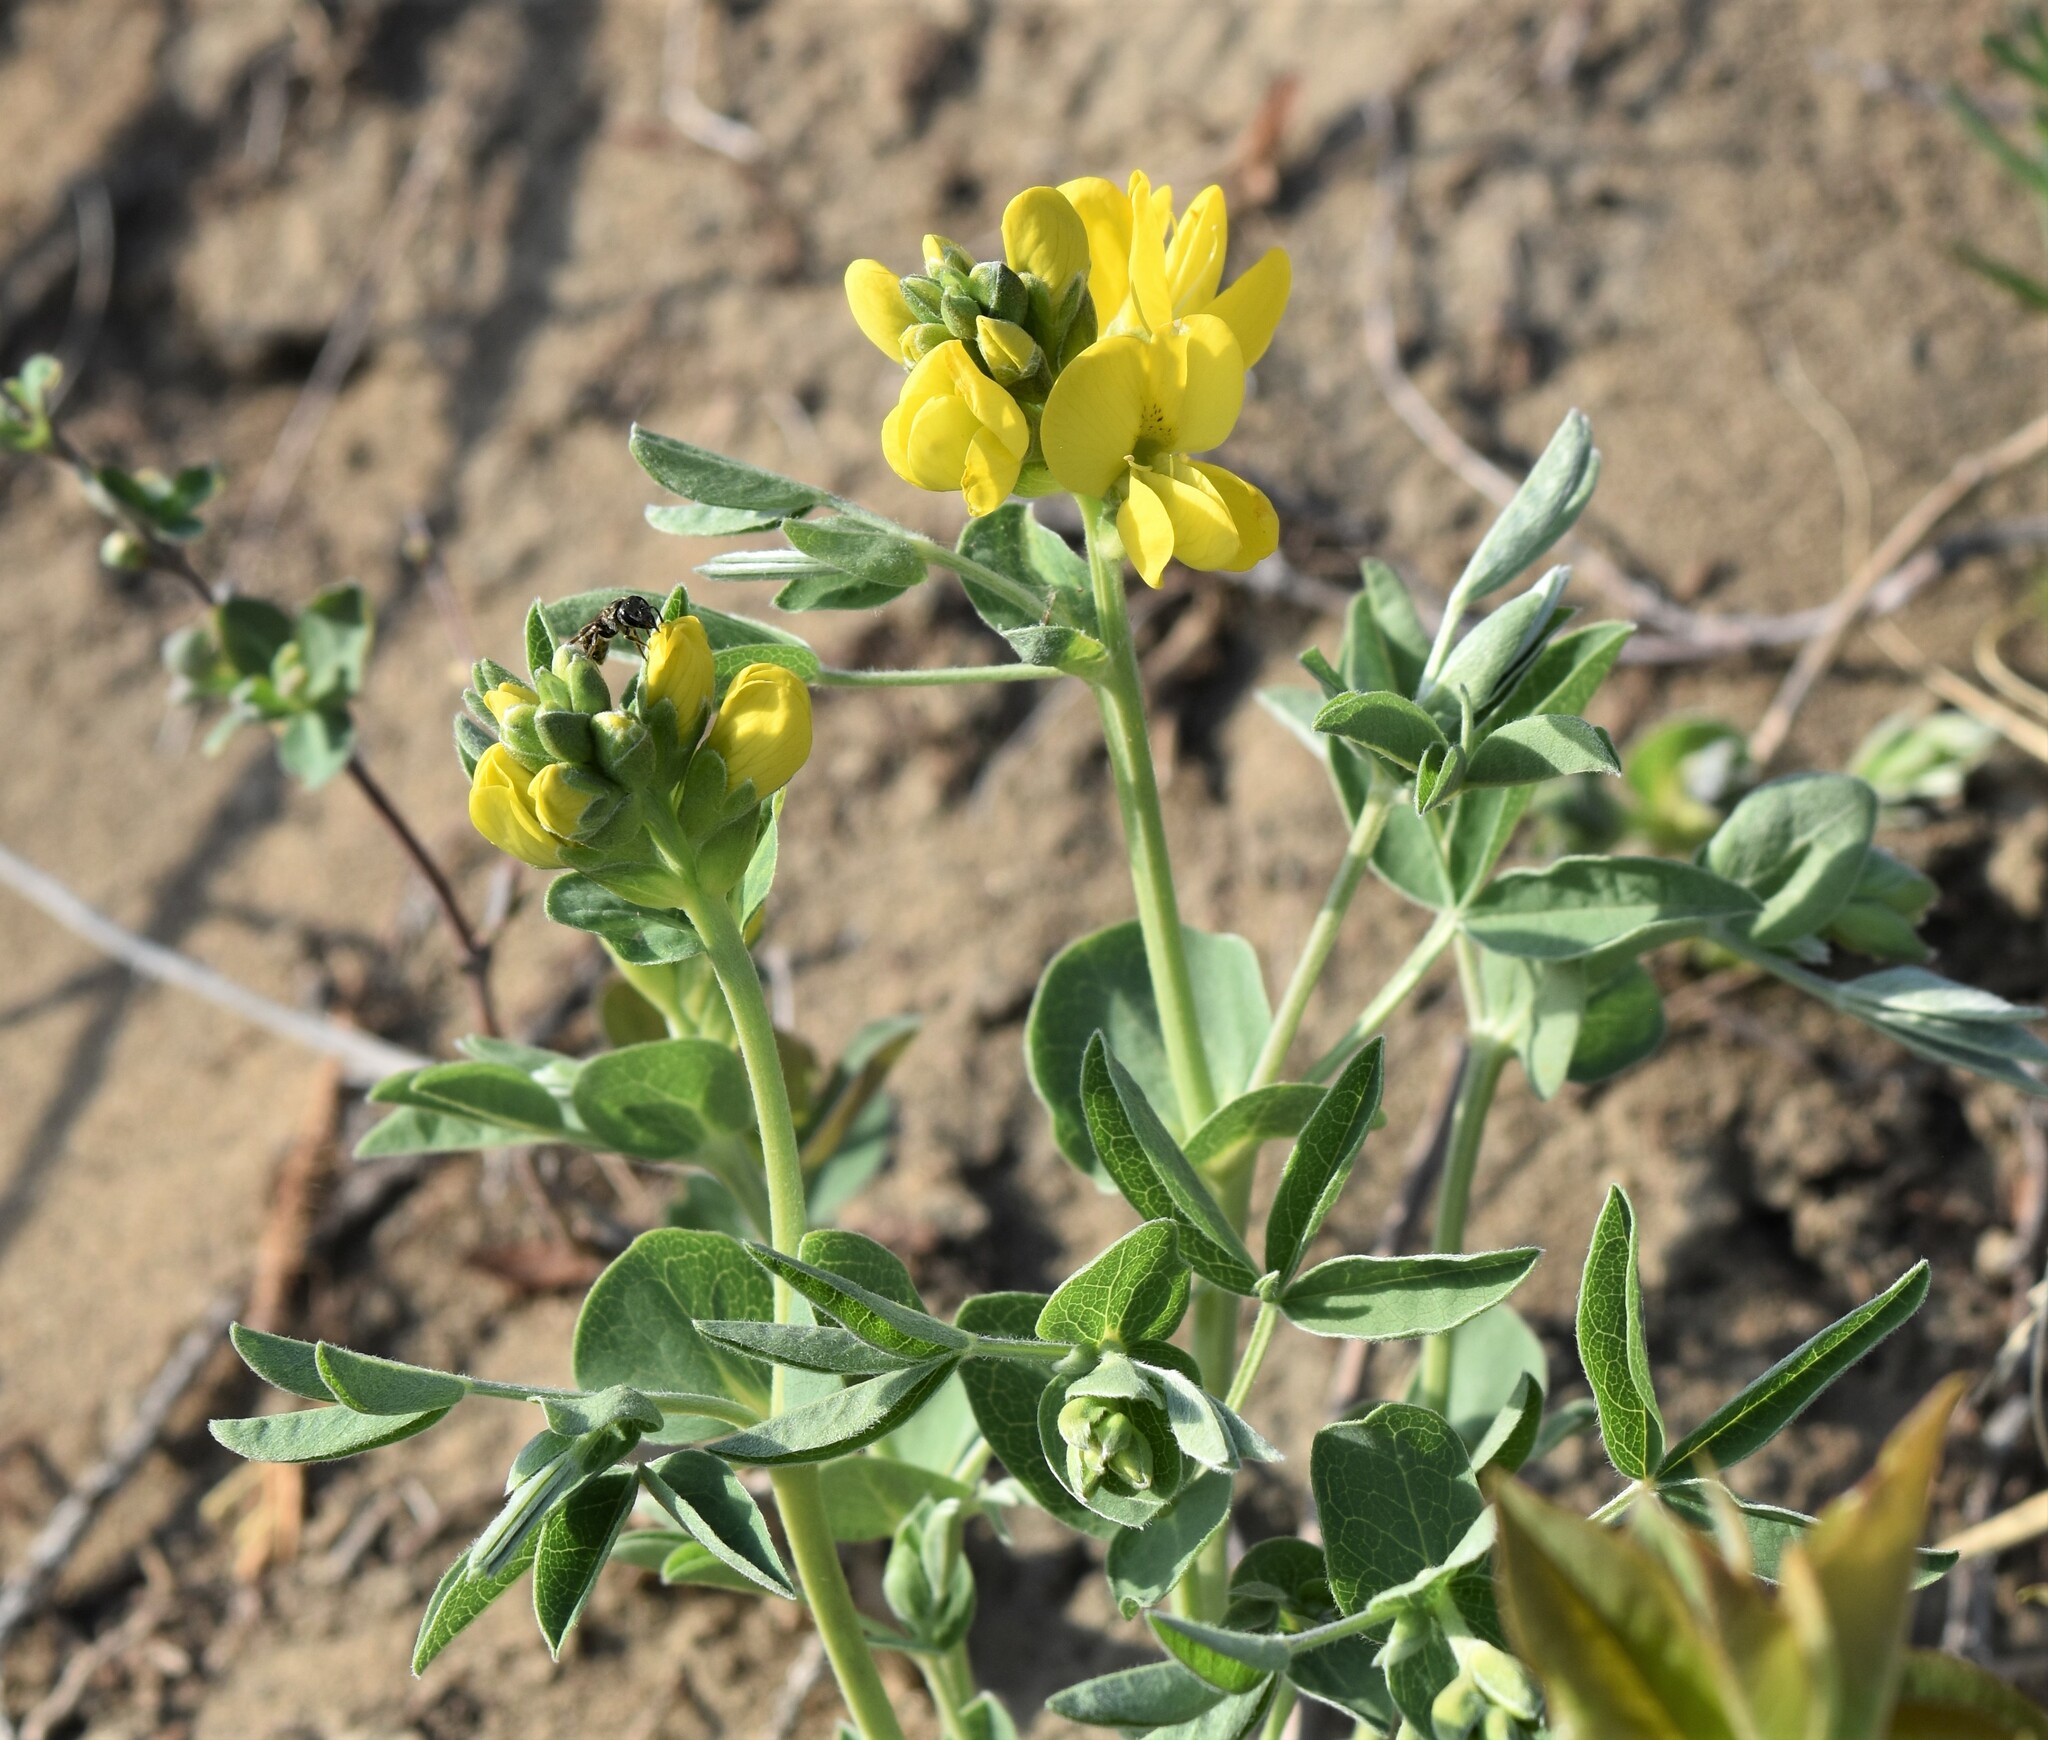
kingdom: Plantae
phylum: Tracheophyta
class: Magnoliopsida
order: Fabales
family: Fabaceae
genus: Thermopsis
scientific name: Thermopsis rhombifolia
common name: Circle-pod-pea
